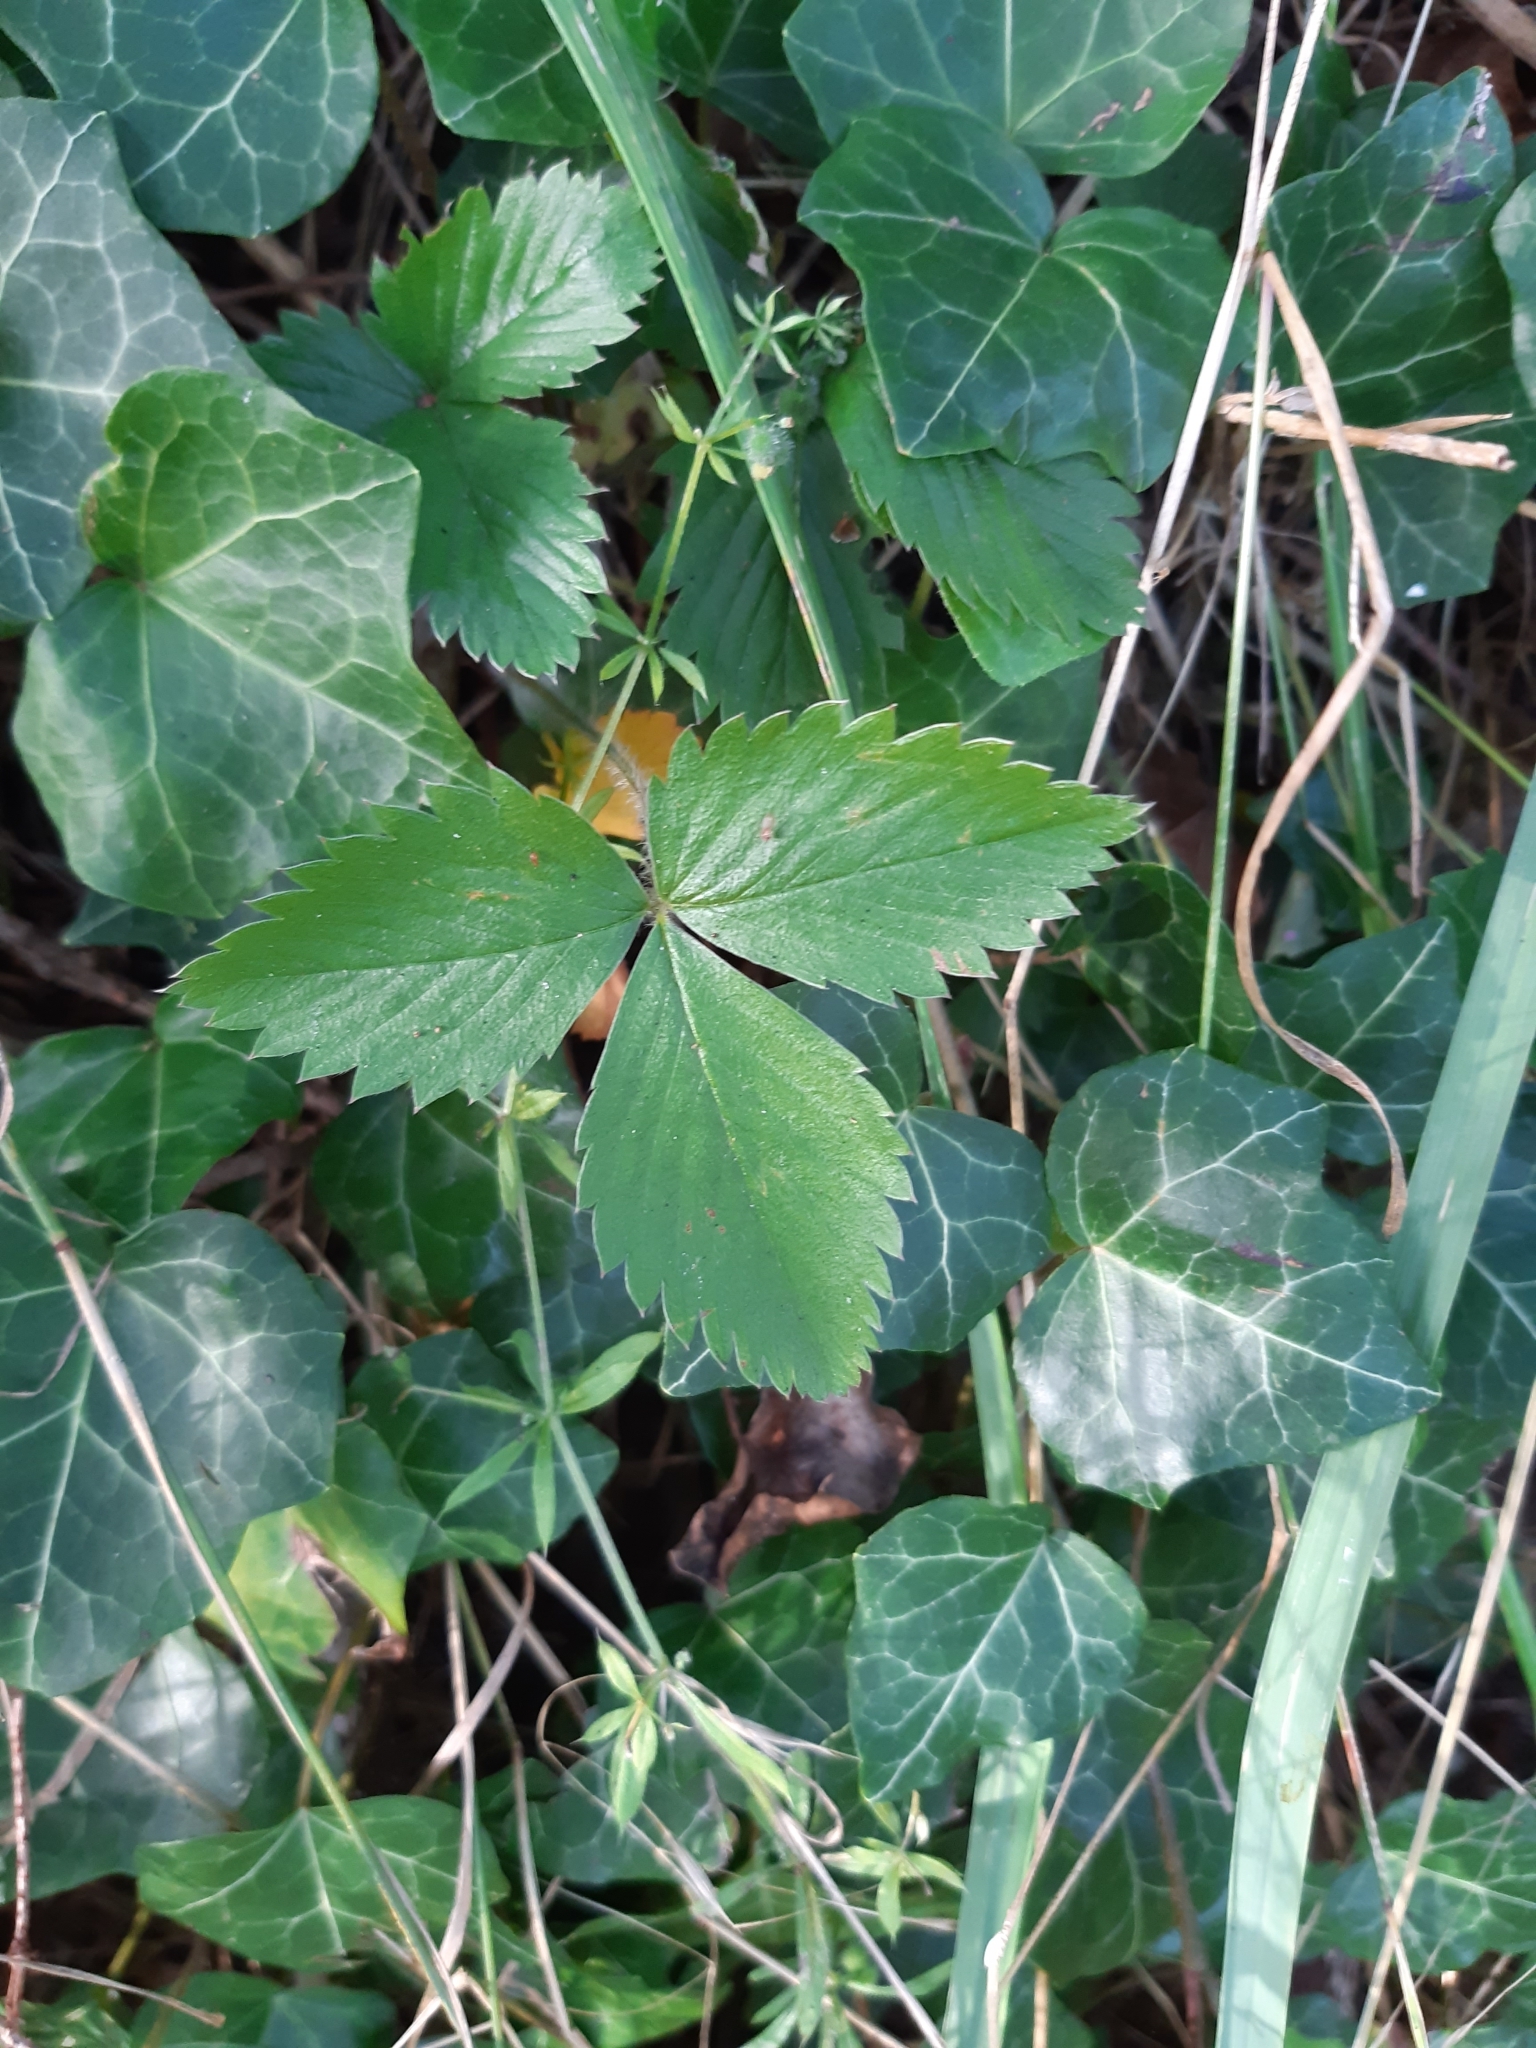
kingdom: Plantae
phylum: Tracheophyta
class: Magnoliopsida
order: Rosales
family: Rosaceae
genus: Fragaria
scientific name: Fragaria vesca
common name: Wild strawberry
